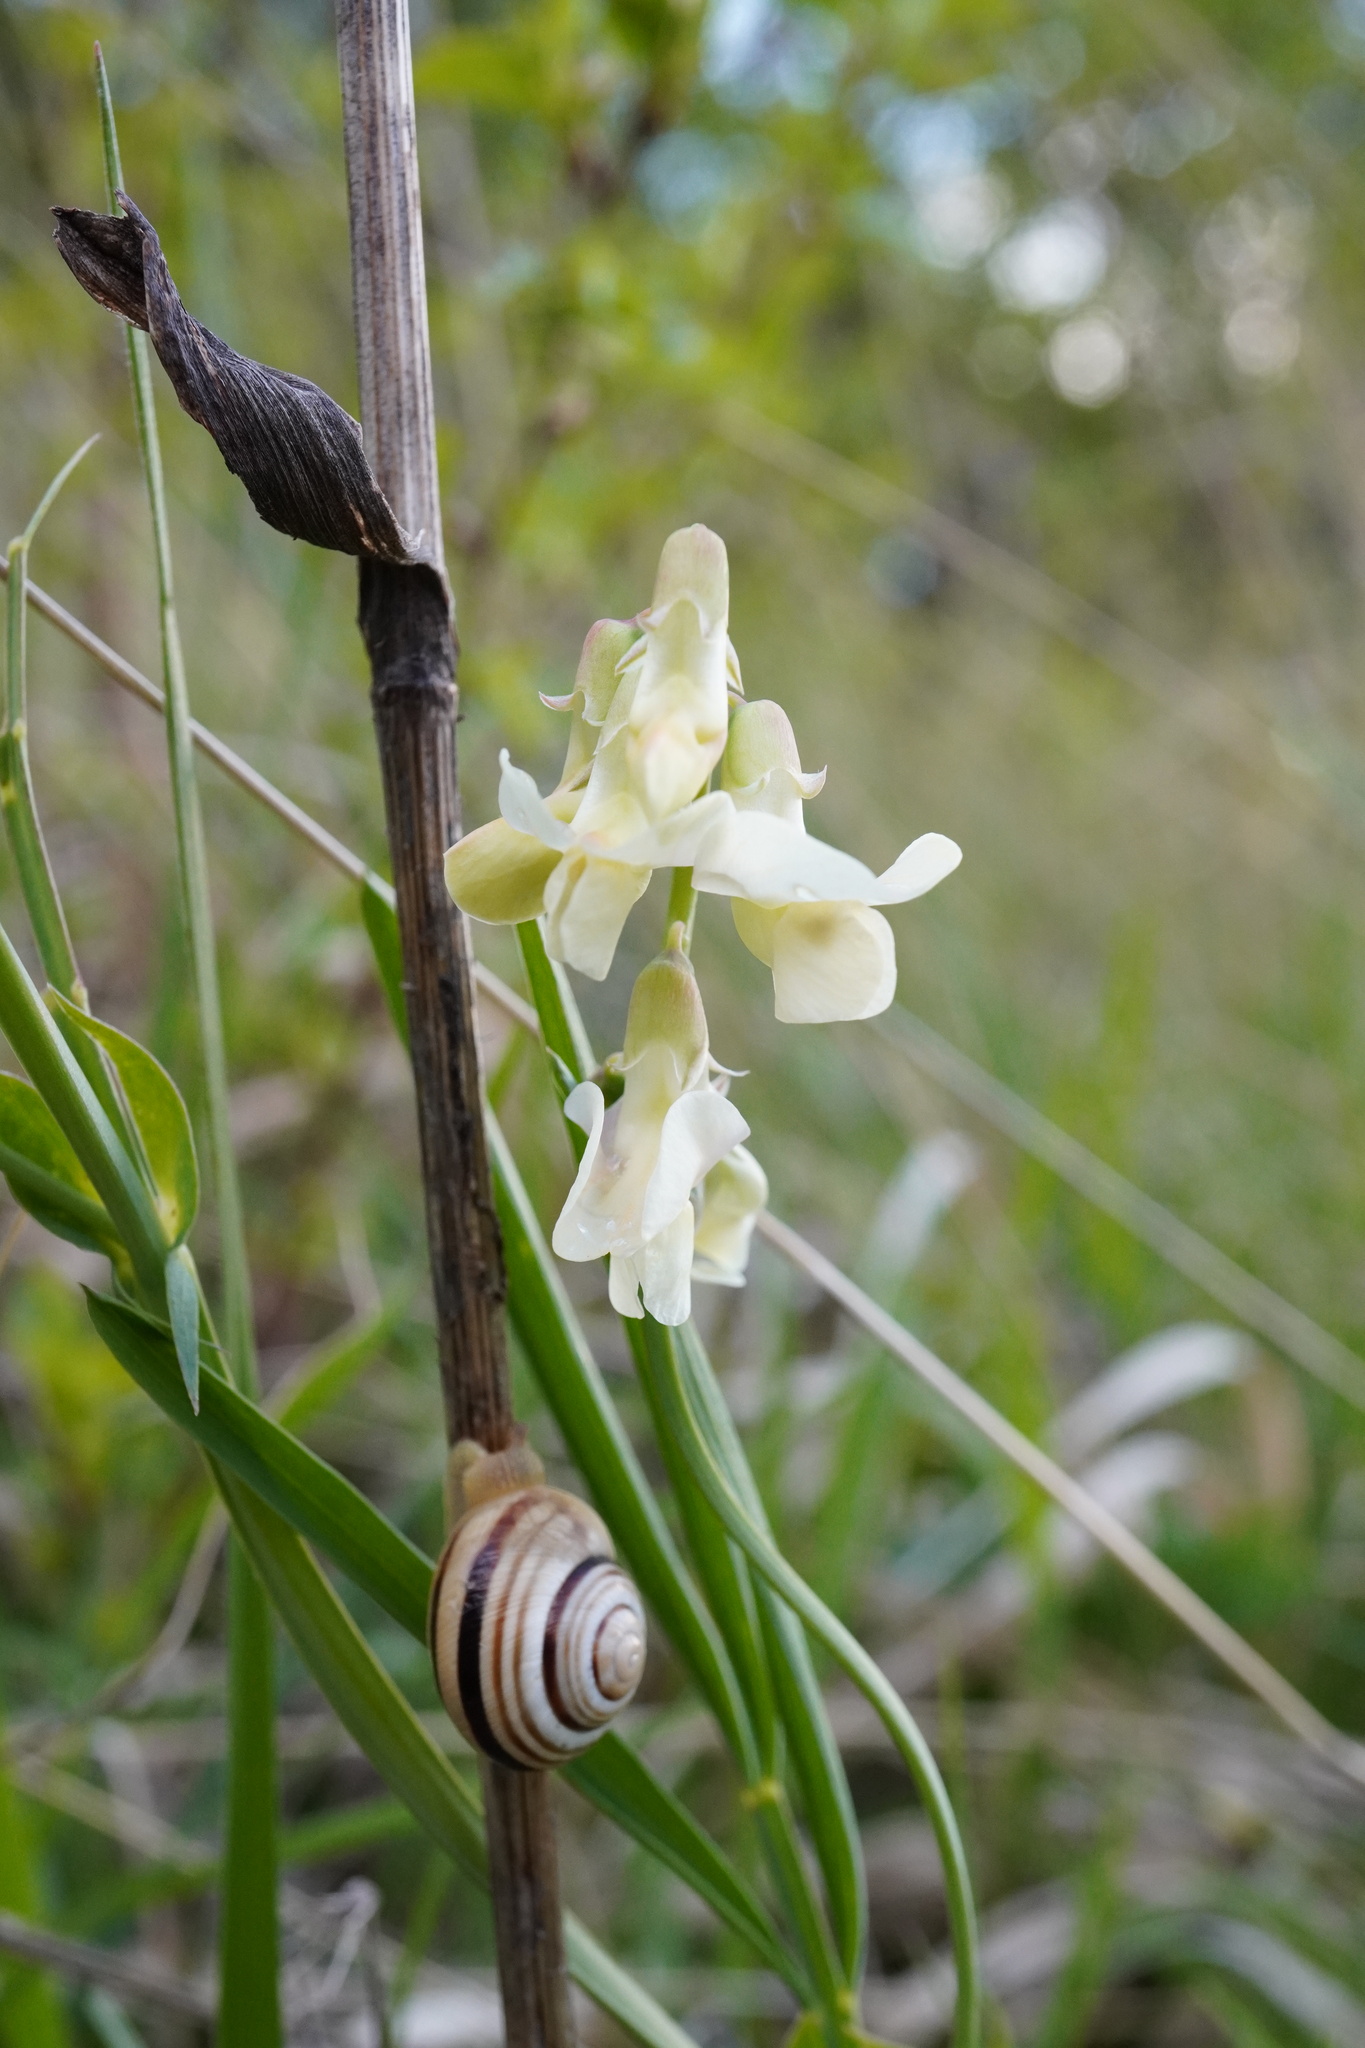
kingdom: Plantae
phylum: Tracheophyta
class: Magnoliopsida
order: Fabales
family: Fabaceae
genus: Lathyrus
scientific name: Lathyrus pannonicus
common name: Pea
